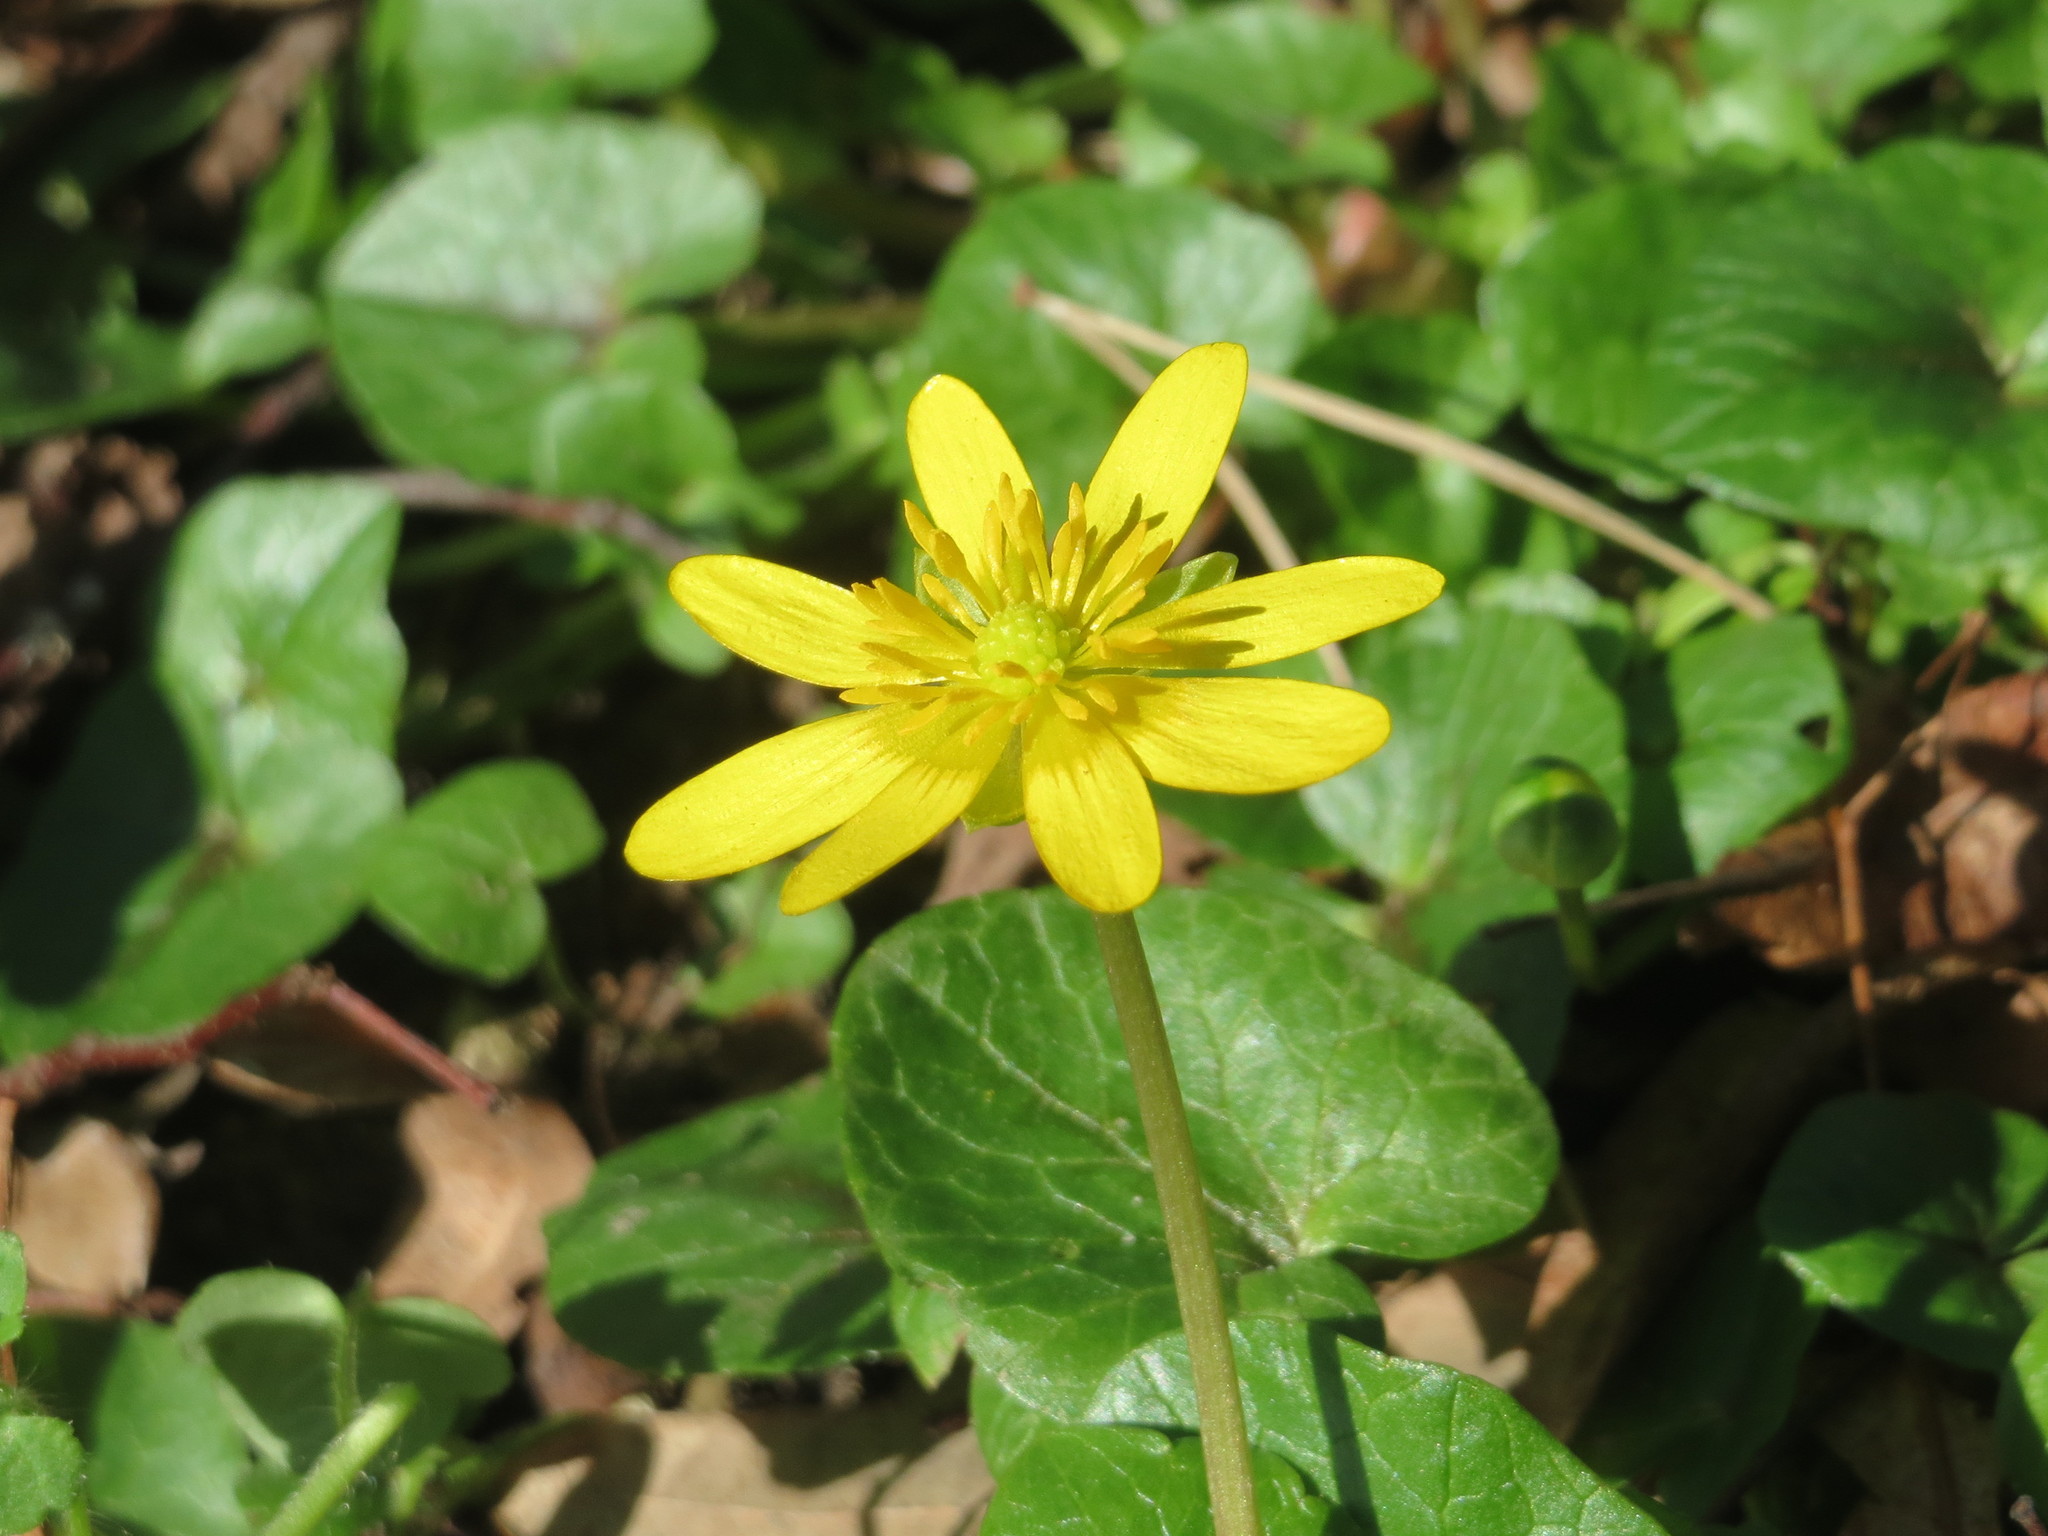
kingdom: Plantae
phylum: Tracheophyta
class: Magnoliopsida
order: Ranunculales
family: Ranunculaceae
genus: Ficaria
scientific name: Ficaria verna
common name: Lesser celandine
